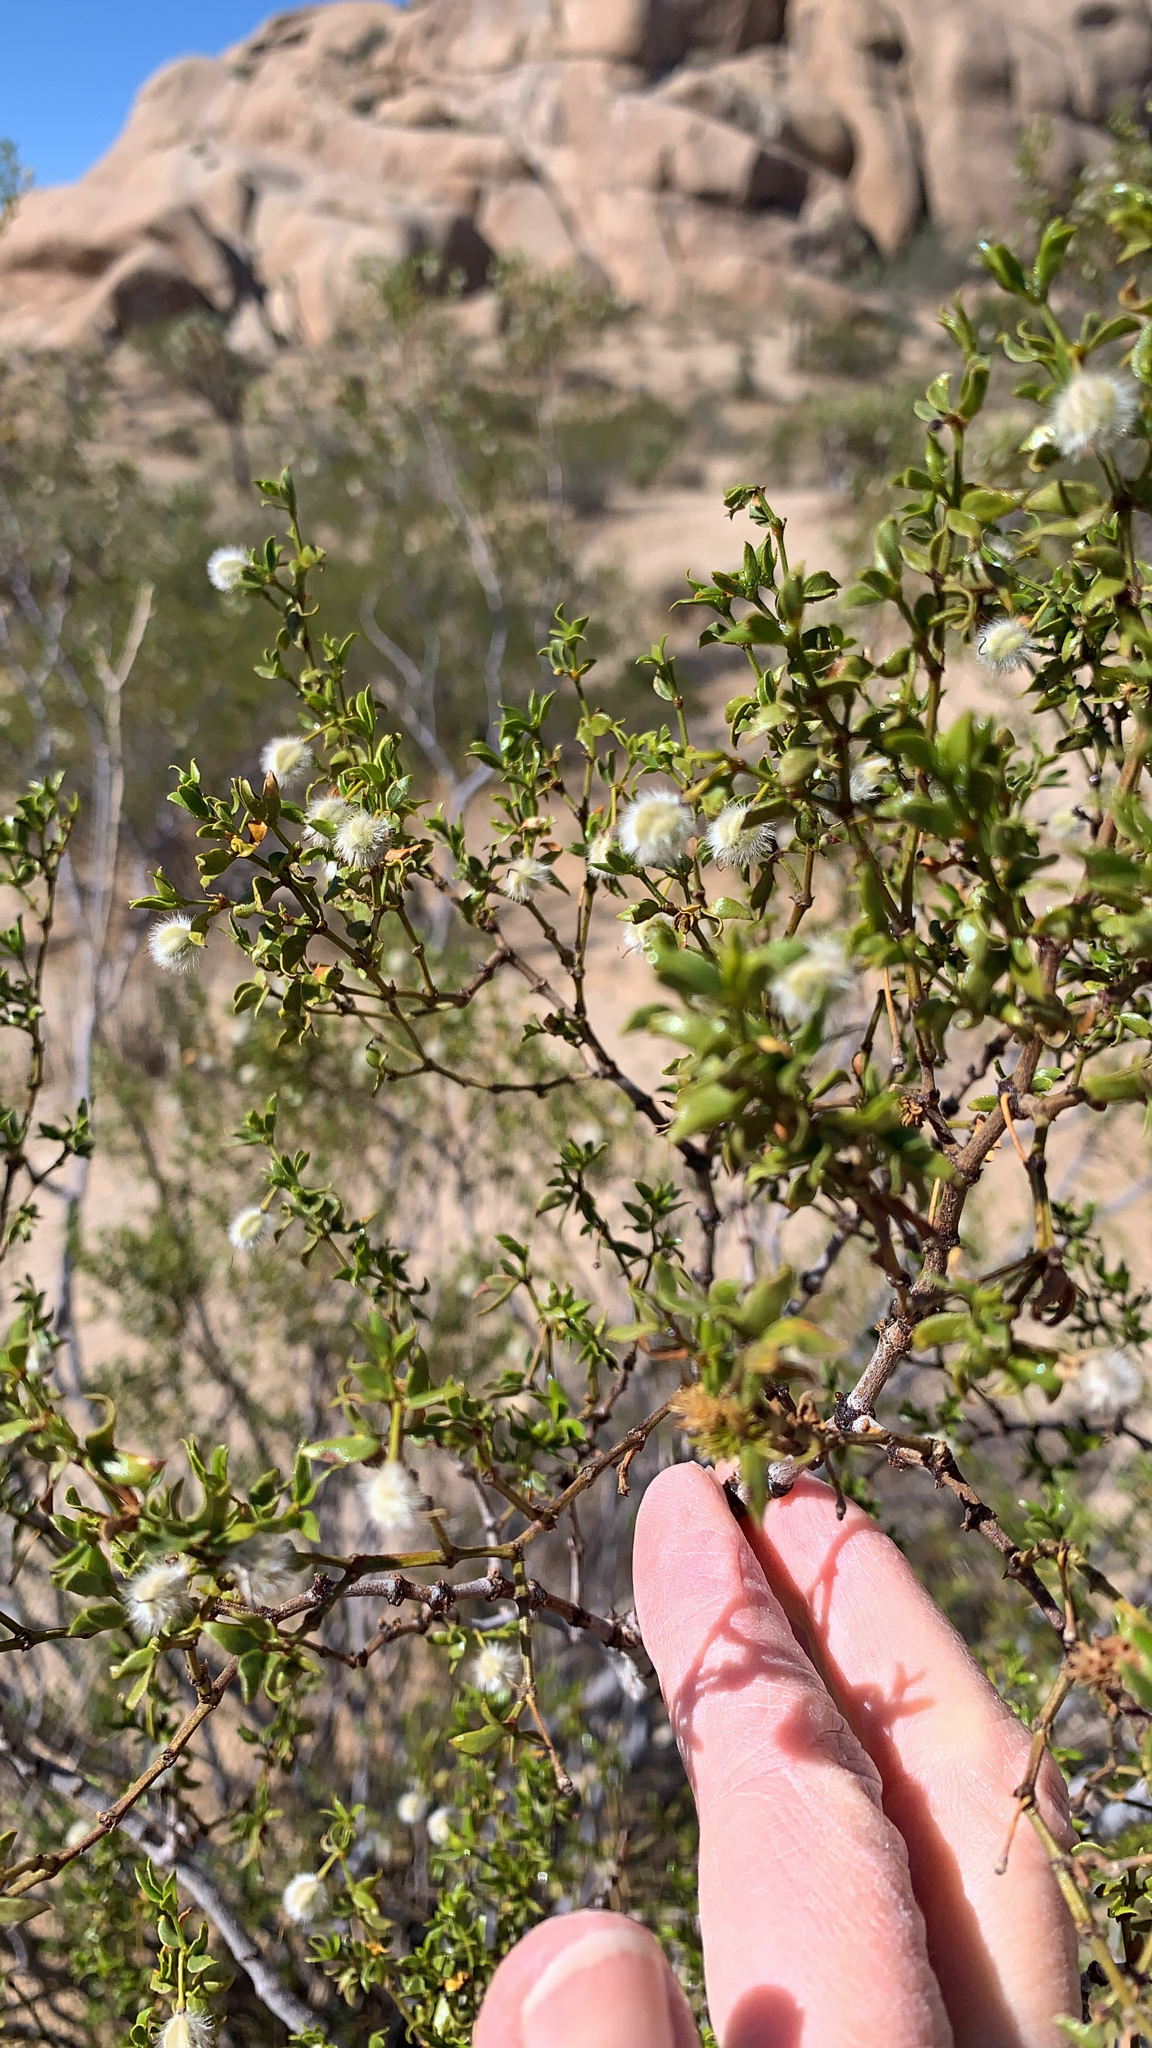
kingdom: Plantae
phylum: Tracheophyta
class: Magnoliopsida
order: Zygophyllales
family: Zygophyllaceae
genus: Larrea
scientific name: Larrea tridentata
